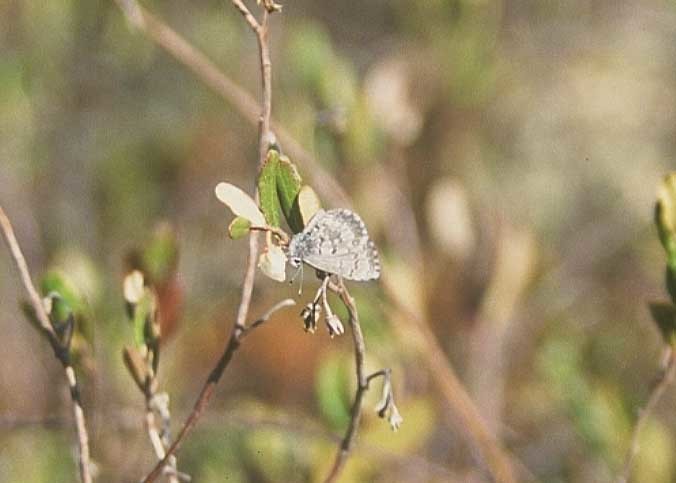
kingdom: Animalia
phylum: Arthropoda
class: Insecta
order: Lepidoptera
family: Lycaenidae
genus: Celastrina
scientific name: Celastrina lucia
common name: Lucia azure
